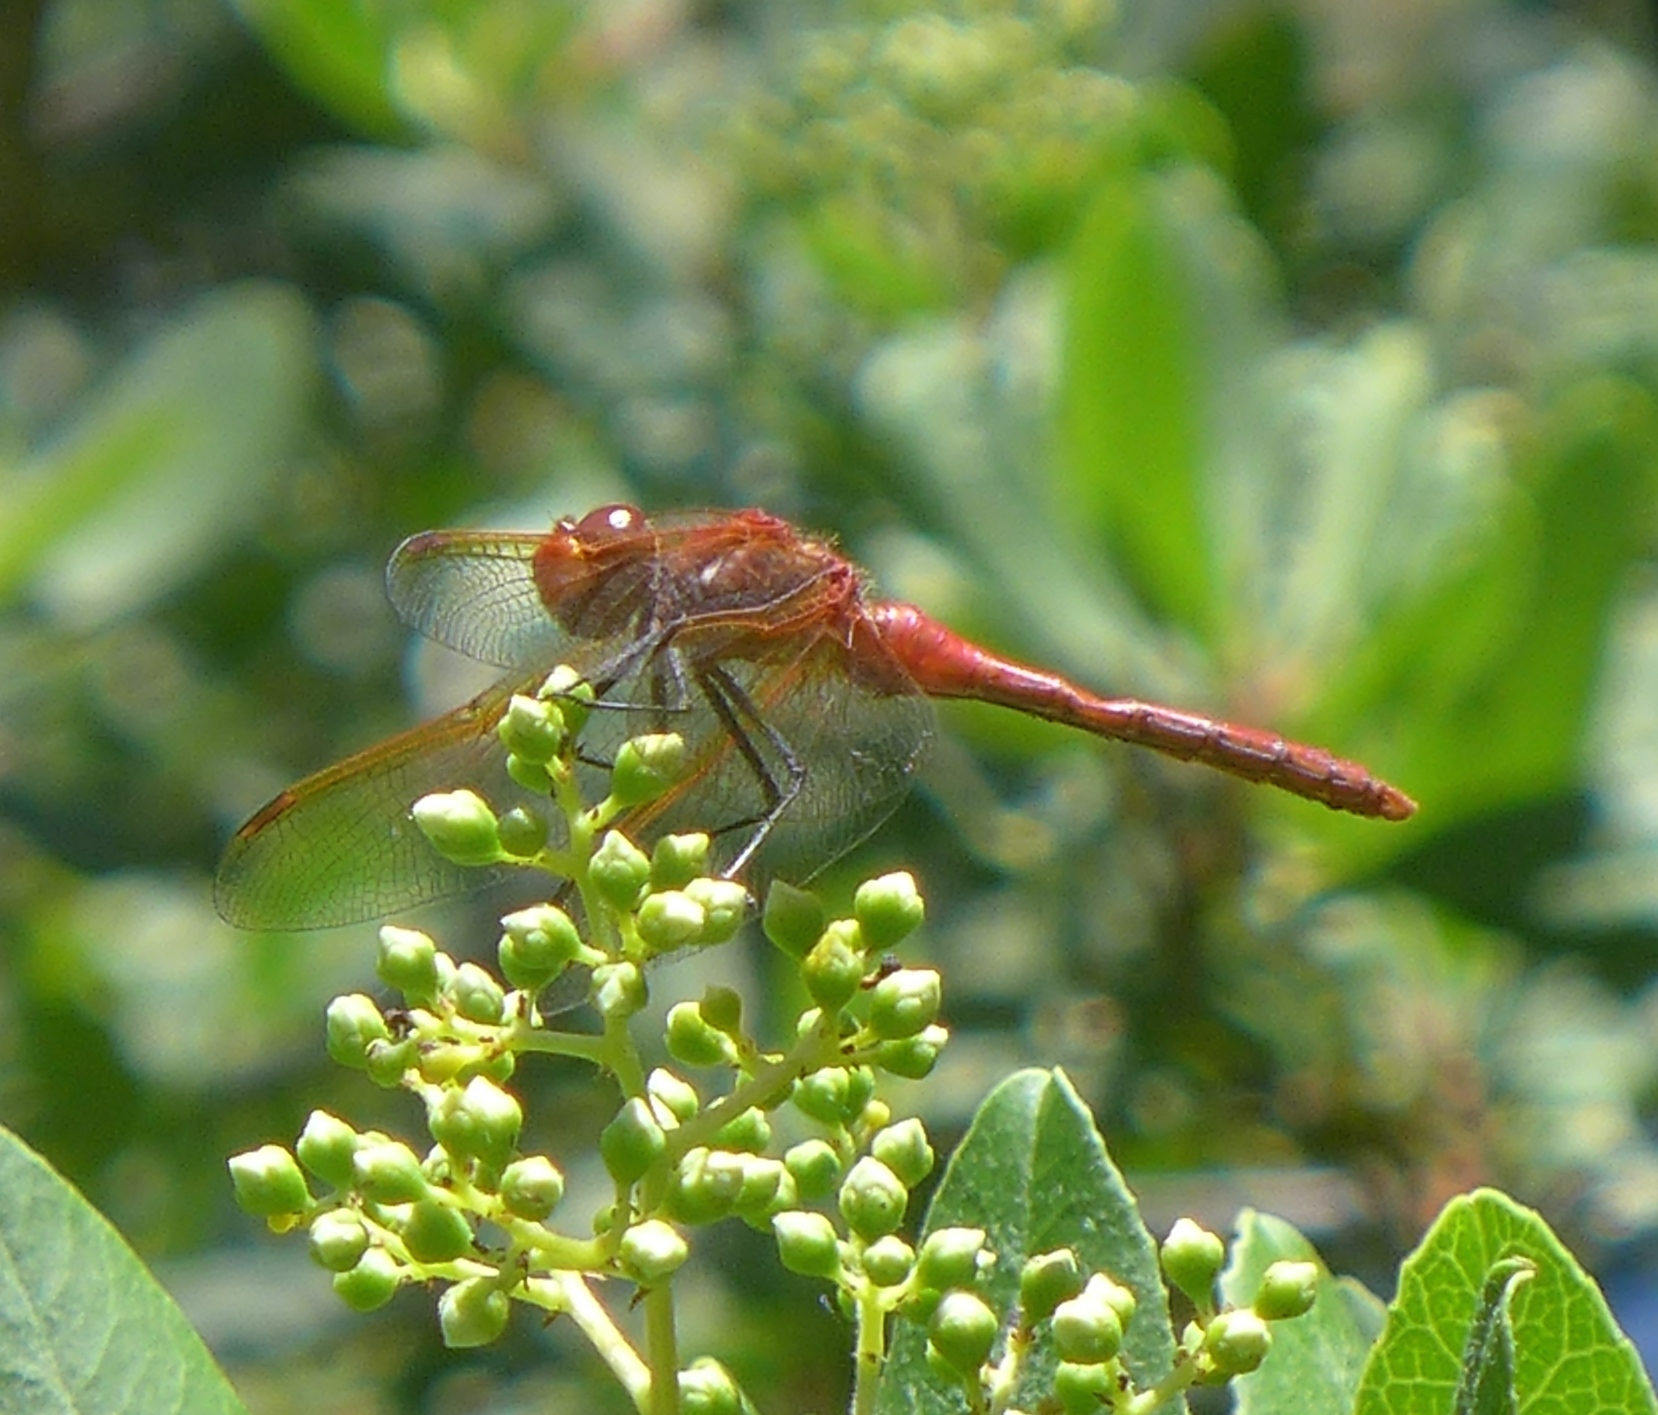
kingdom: Animalia
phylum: Arthropoda
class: Insecta
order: Odonata
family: Libellulidae
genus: Sympetrum
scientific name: Sympetrum madidum
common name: Red-veined meadowhawk
